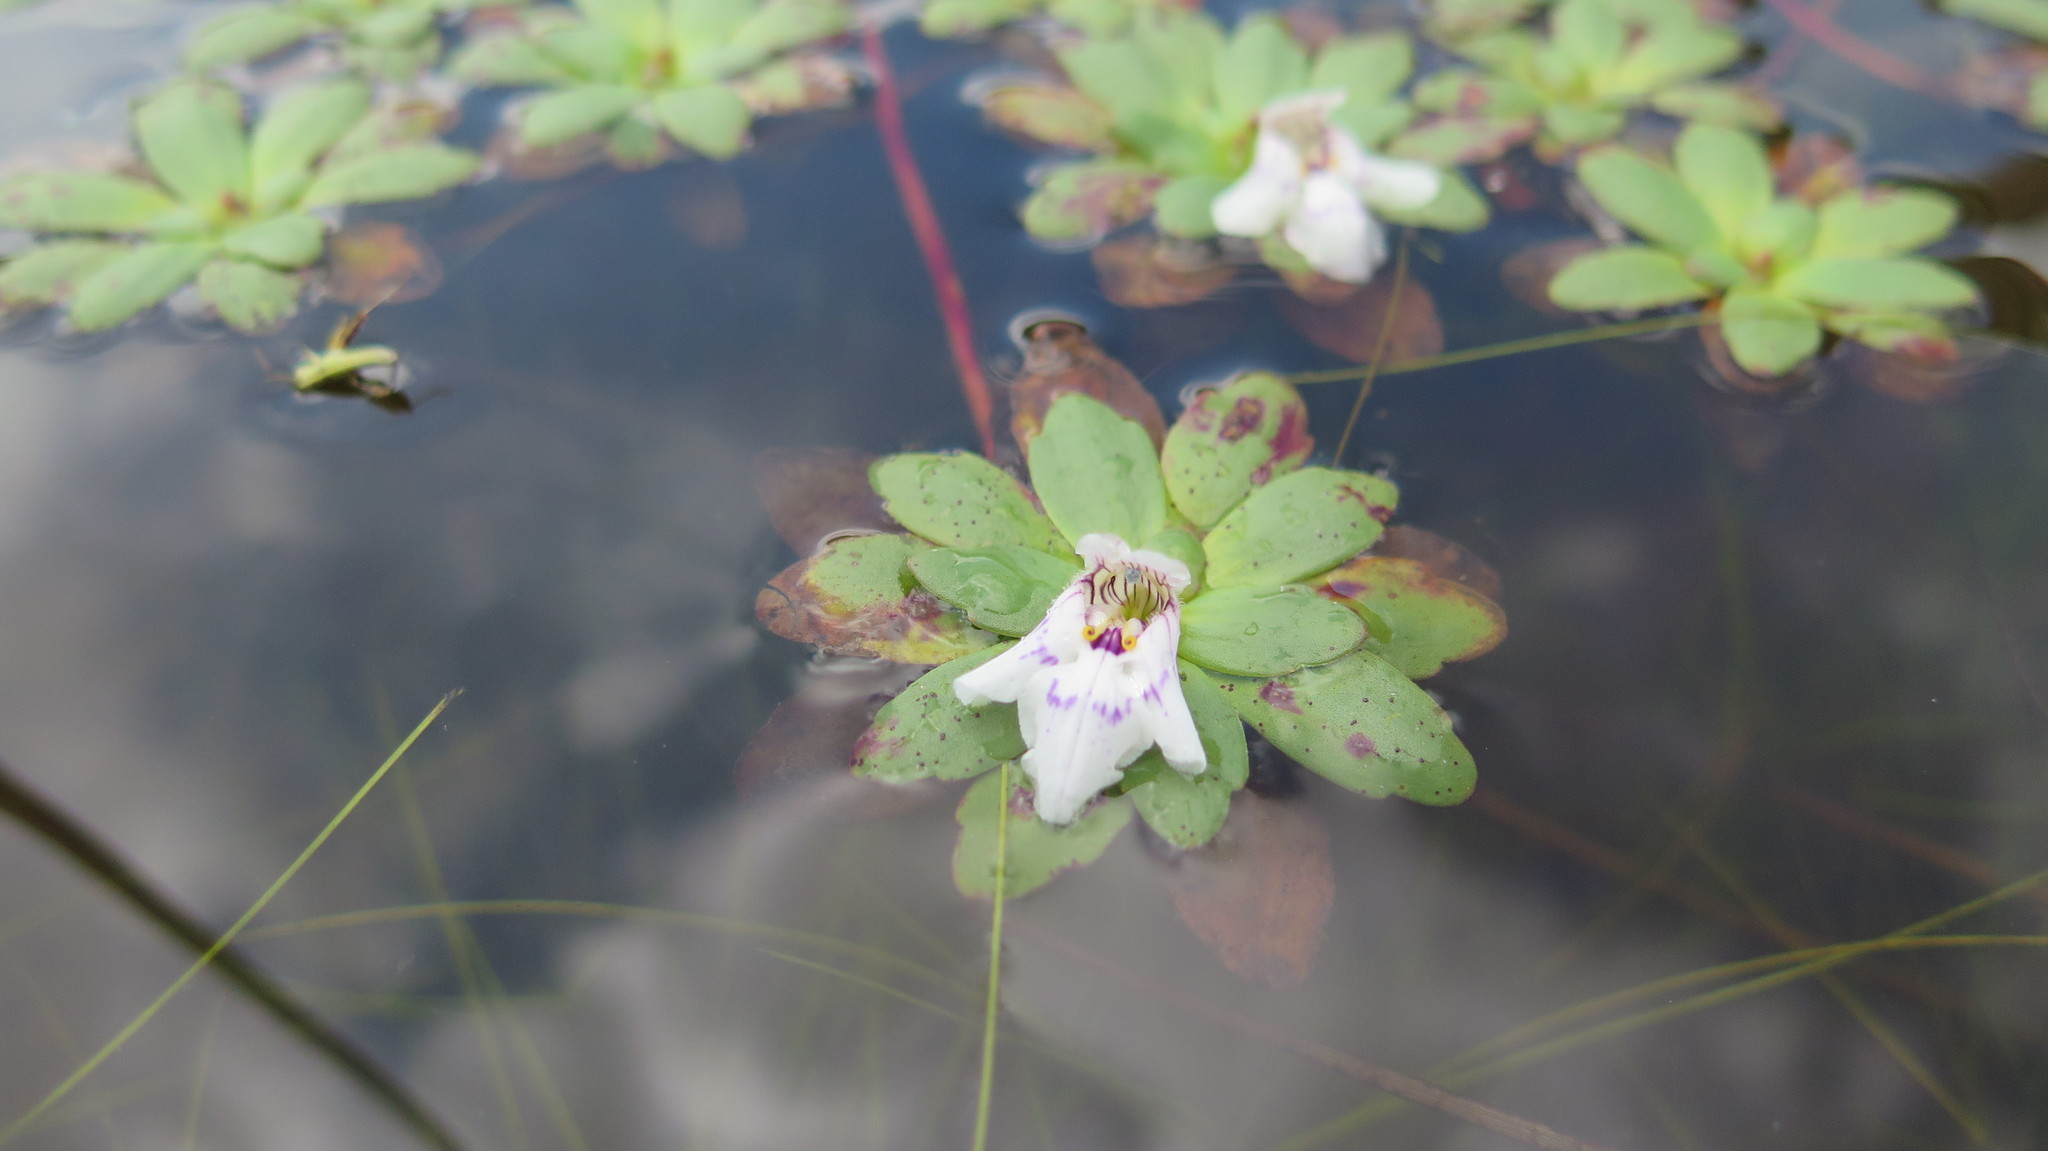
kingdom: Plantae
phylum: Tracheophyta
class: Magnoliopsida
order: Lamiales
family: Linderniaceae
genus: Lindernia
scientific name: Lindernia conferta
